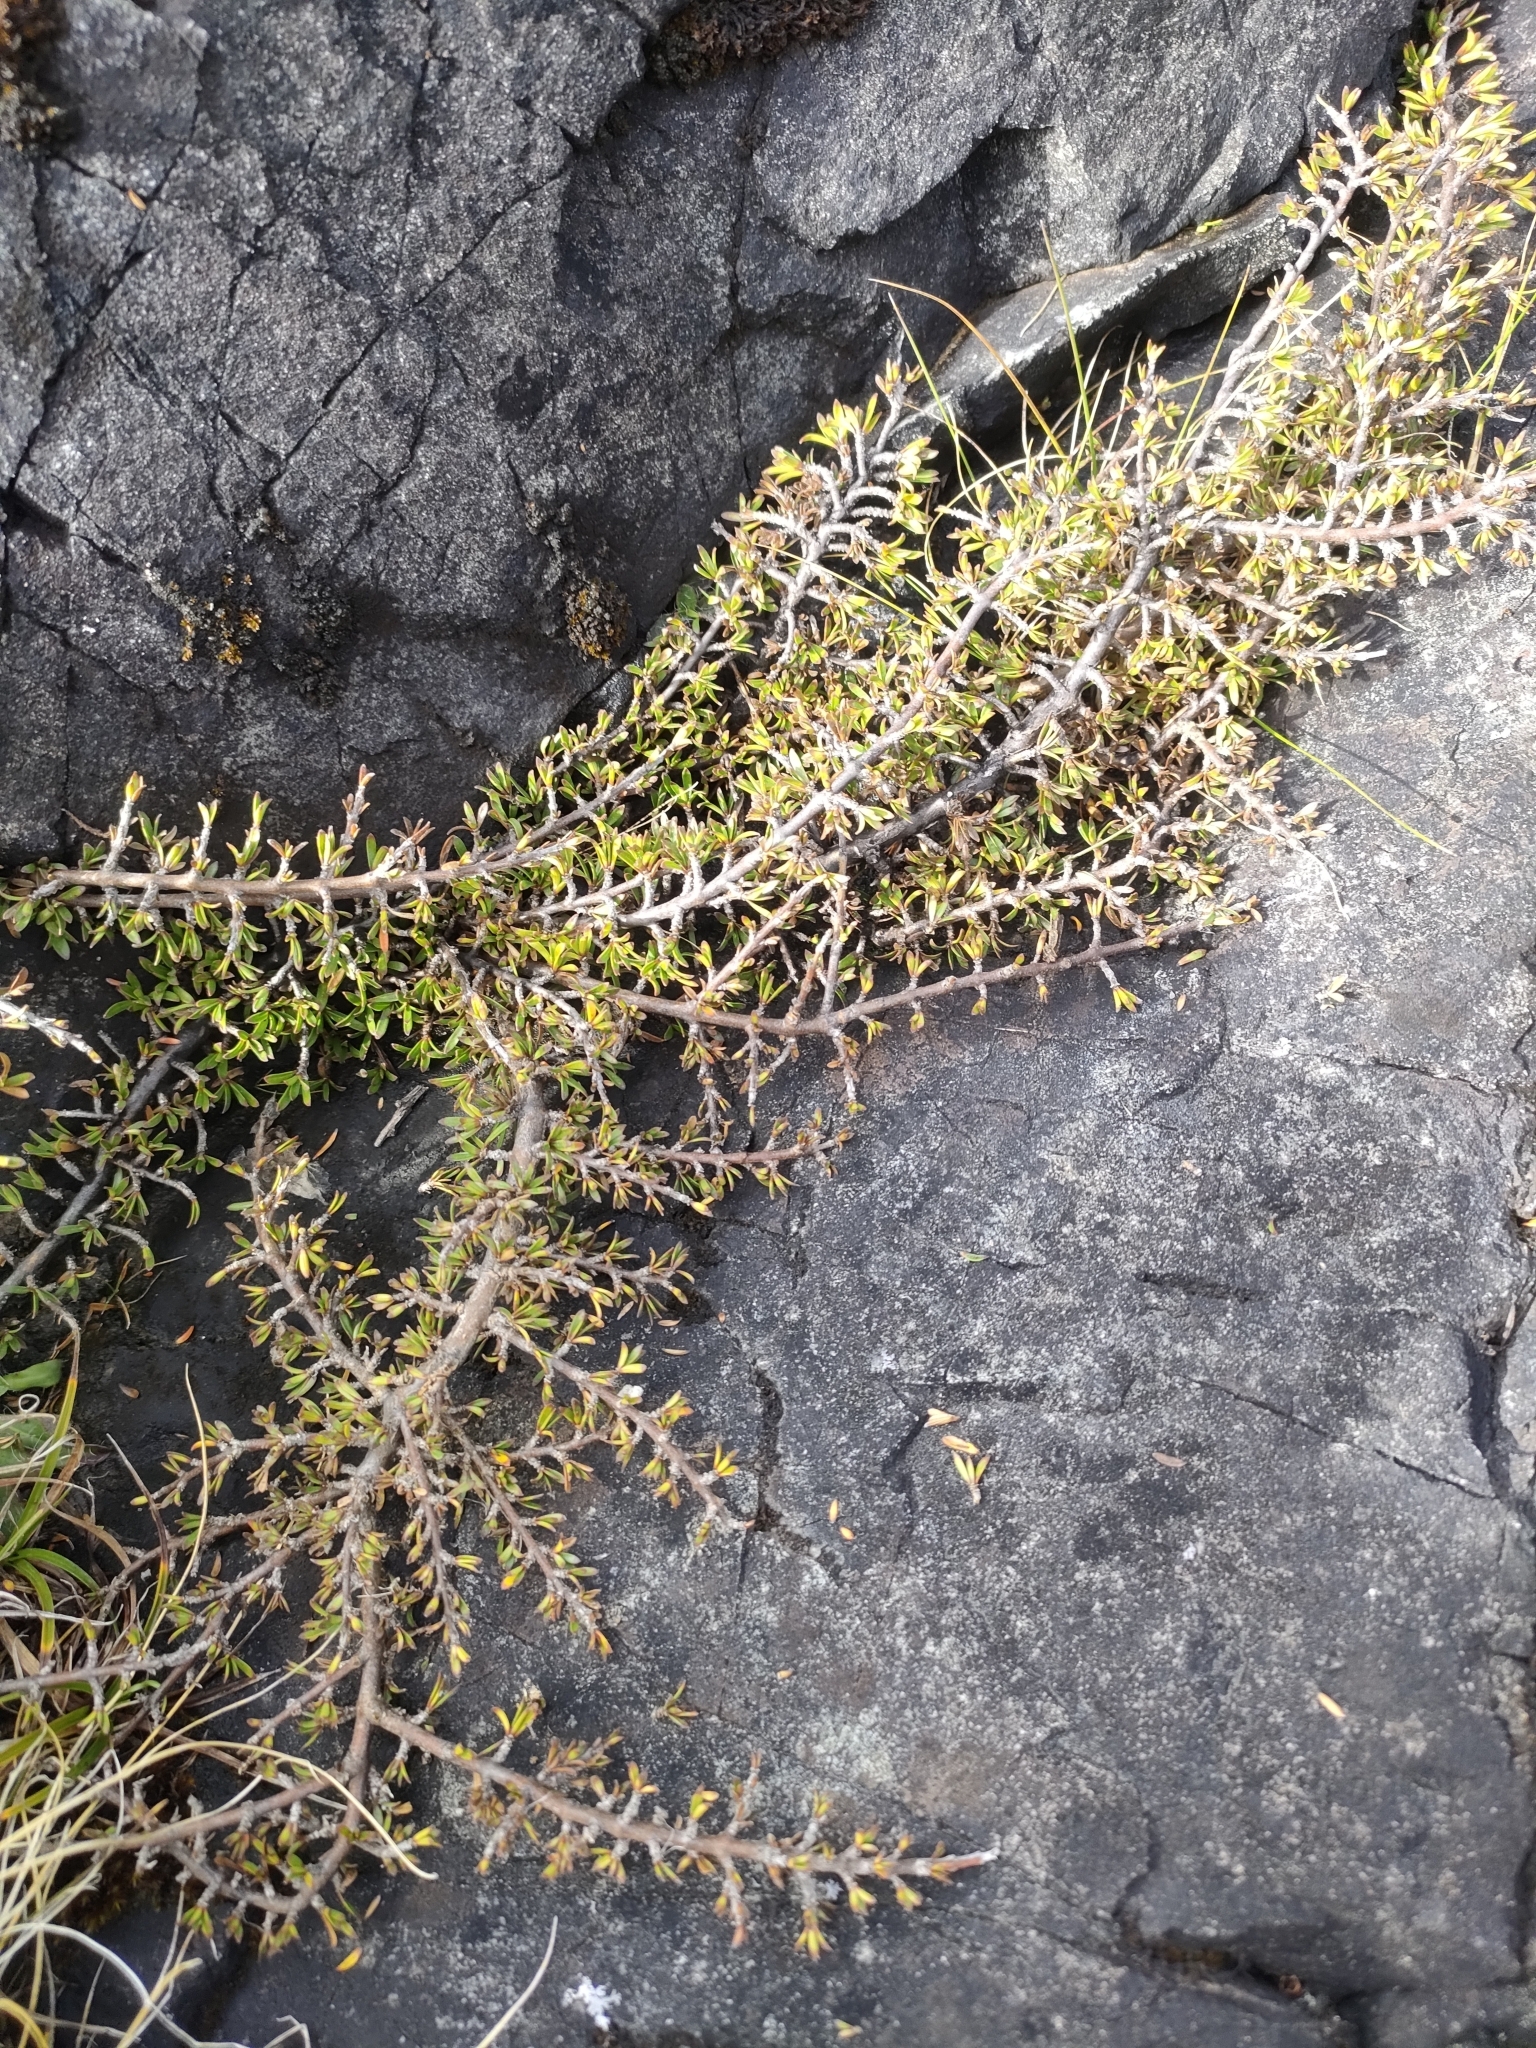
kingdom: Plantae
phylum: Tracheophyta
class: Magnoliopsida
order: Gentianales
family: Rubiaceae
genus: Coprosma
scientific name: Coprosma cheesemanii
